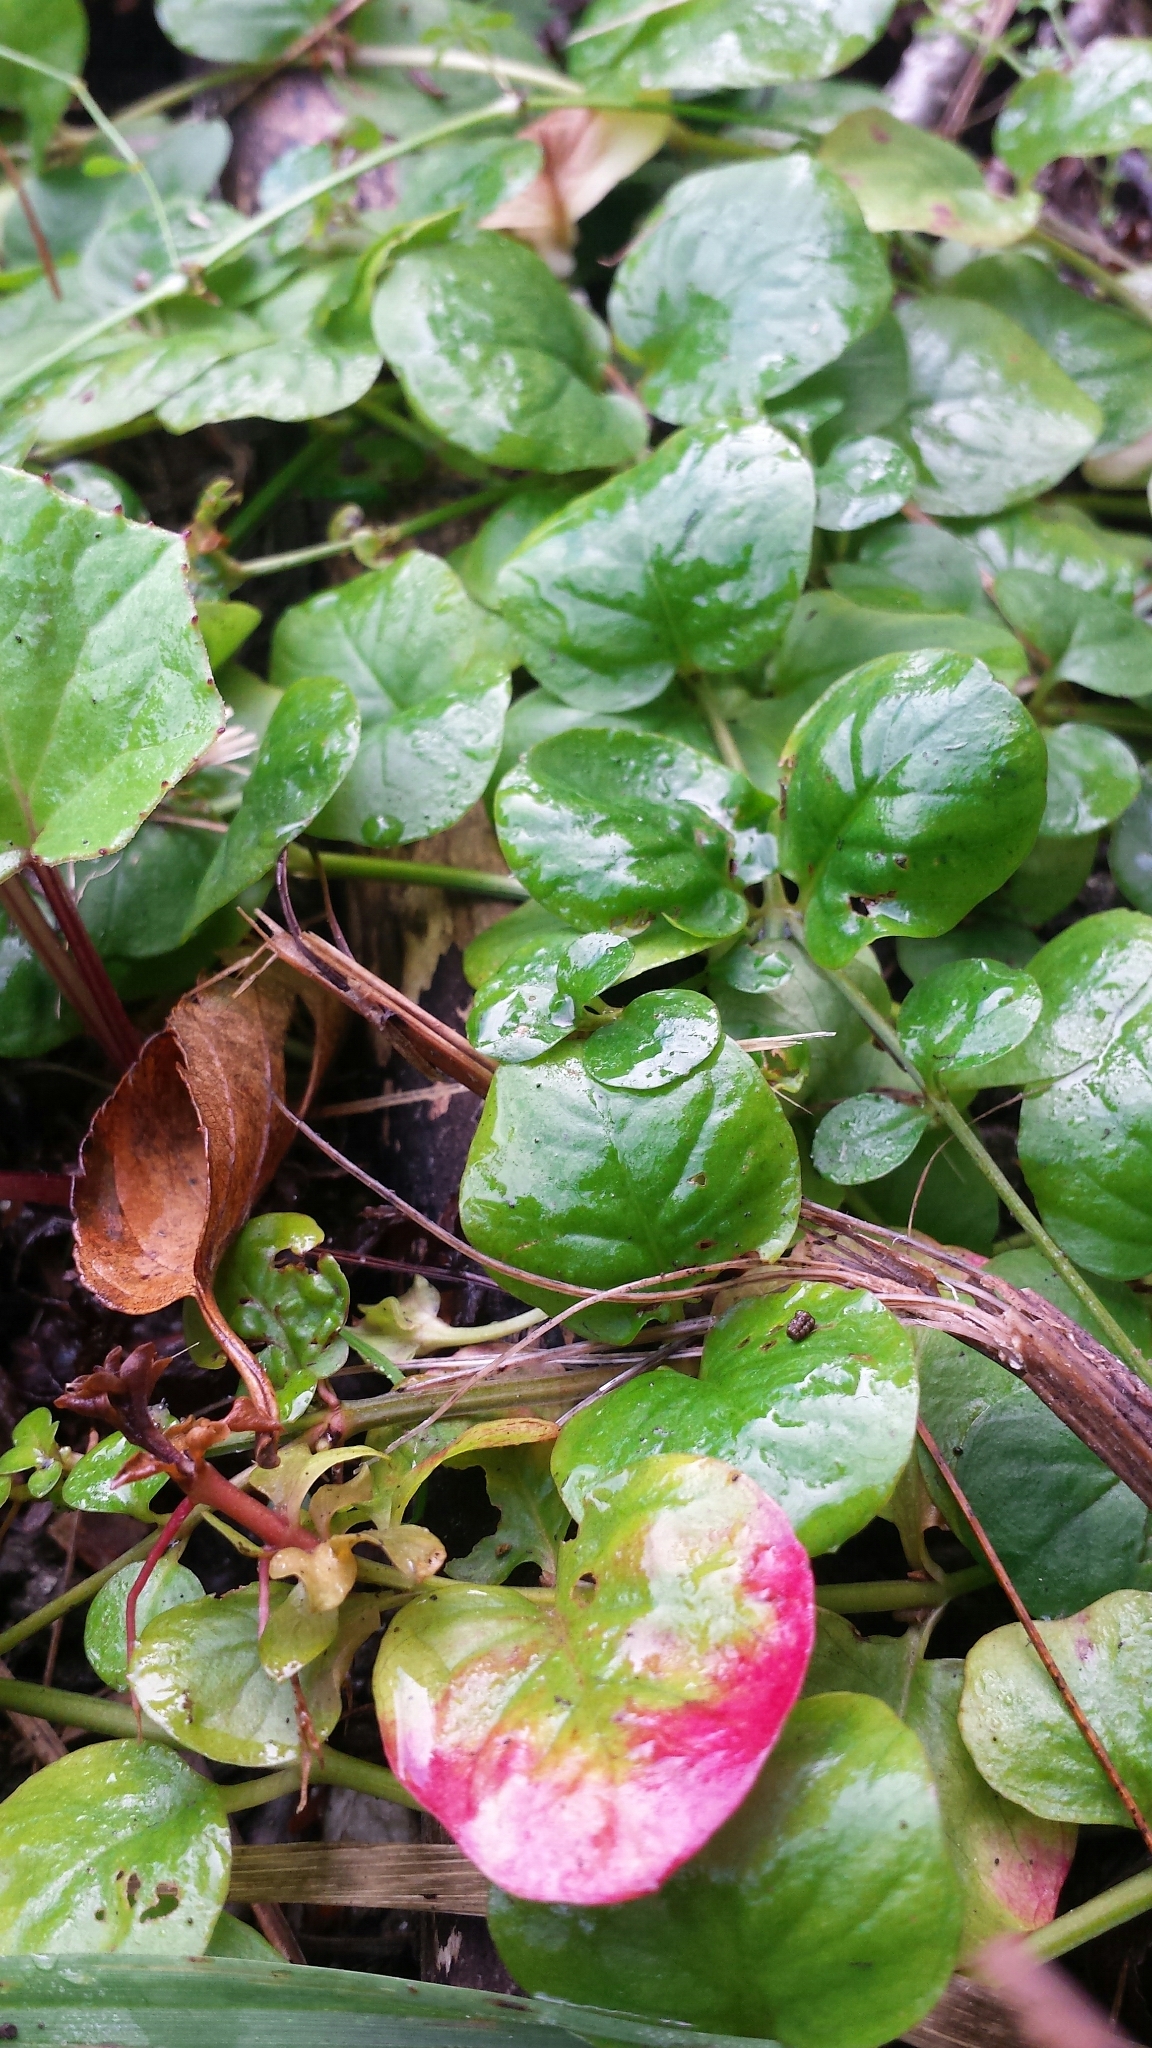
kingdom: Plantae
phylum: Tracheophyta
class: Magnoliopsida
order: Ericales
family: Primulaceae
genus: Lysimachia
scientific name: Lysimachia nummularia
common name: Moneywort
